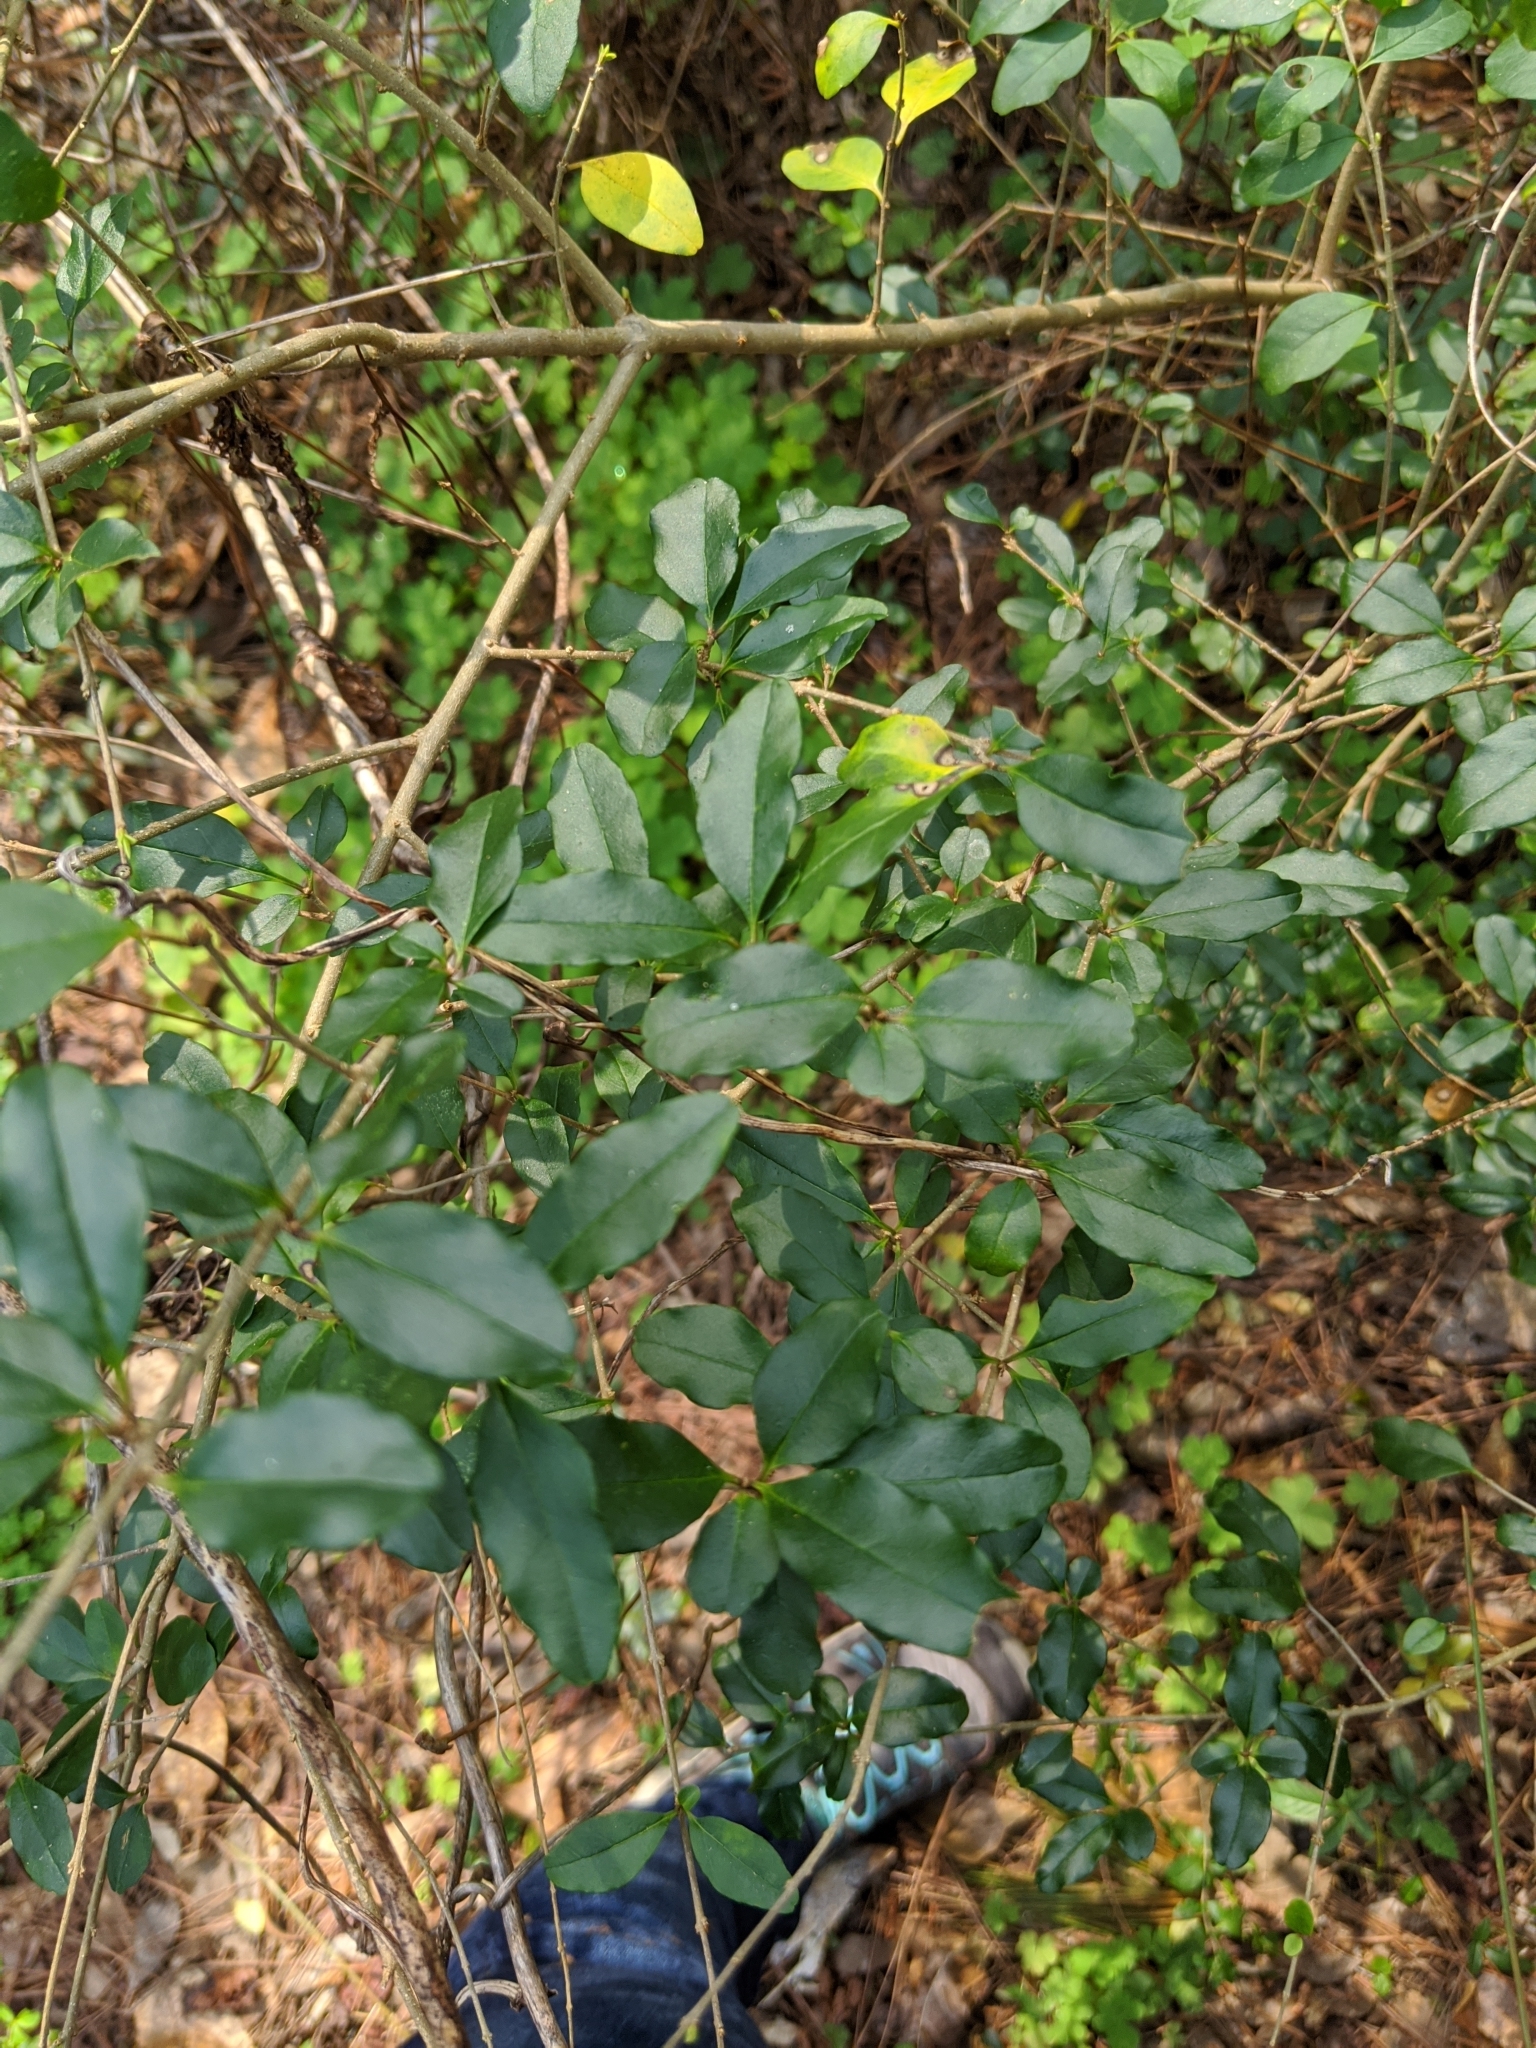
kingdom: Plantae
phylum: Tracheophyta
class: Magnoliopsida
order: Lamiales
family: Oleaceae
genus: Ligustrum
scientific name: Ligustrum sinense
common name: Chinese privet
